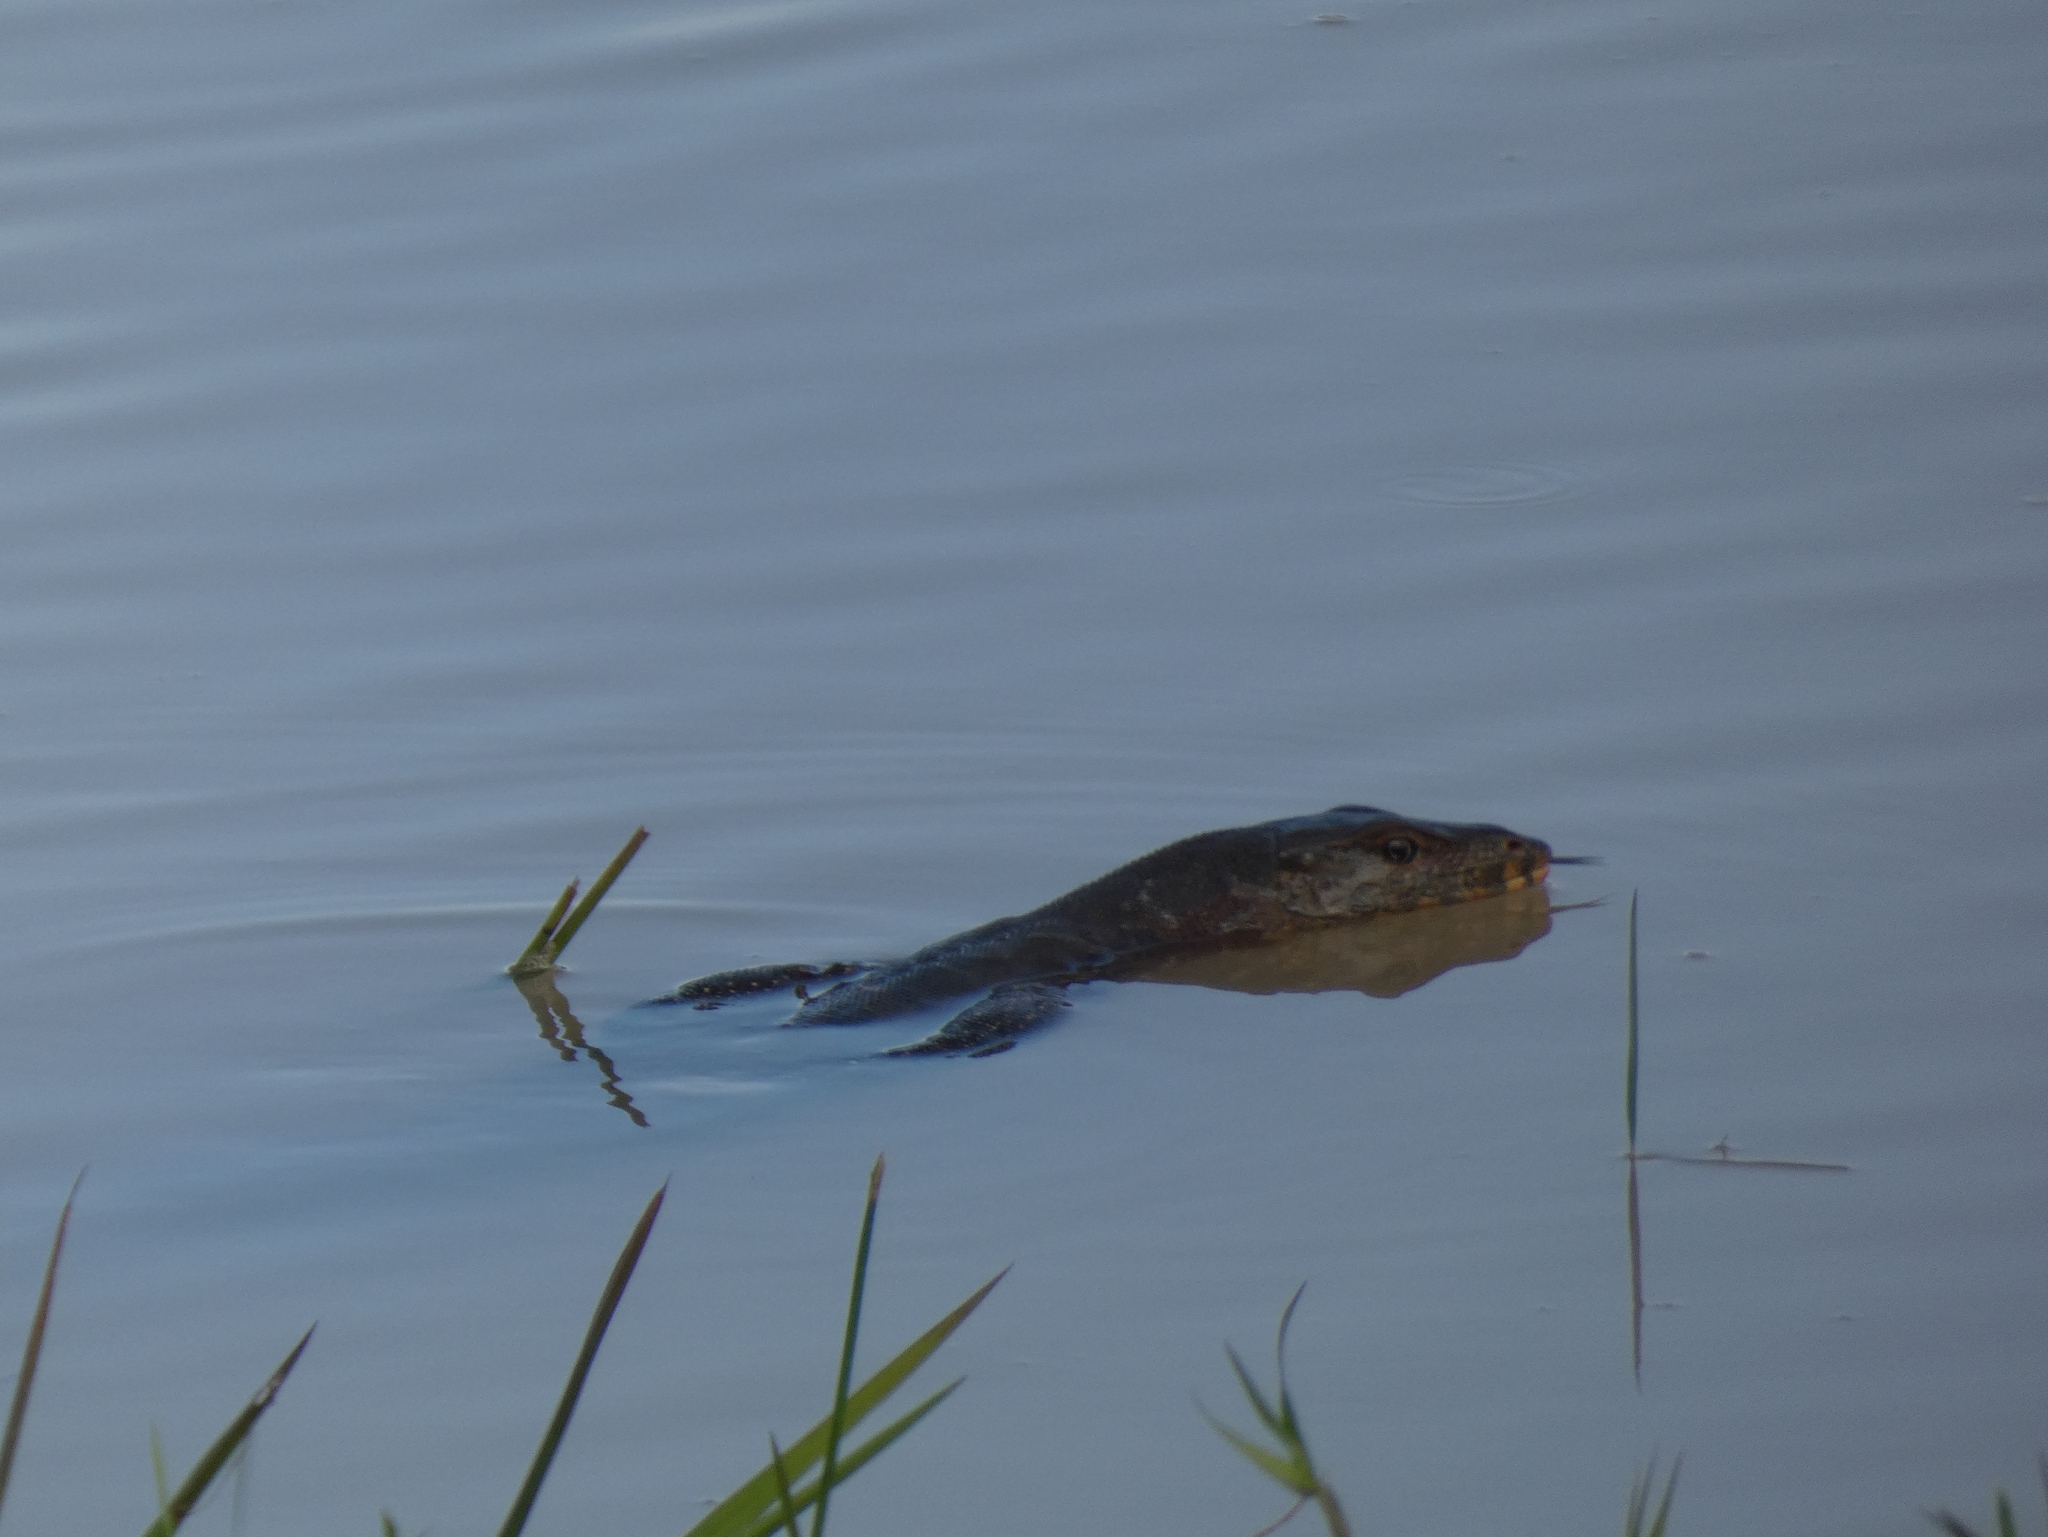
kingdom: Animalia
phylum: Chordata
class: Squamata
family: Varanidae
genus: Varanus
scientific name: Varanus salvator
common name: Common water monitor
